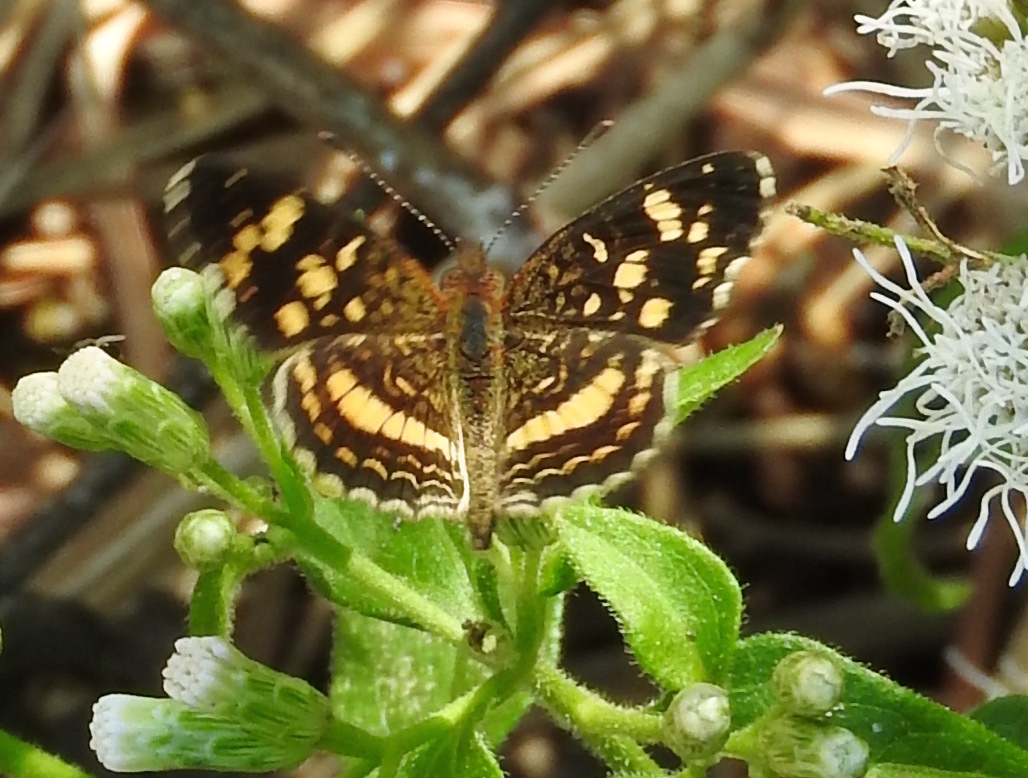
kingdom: Animalia
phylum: Arthropoda
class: Insecta
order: Lepidoptera
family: Nymphalidae
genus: Anthanassa
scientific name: Anthanassa tulcis
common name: Pale-banded crescent
